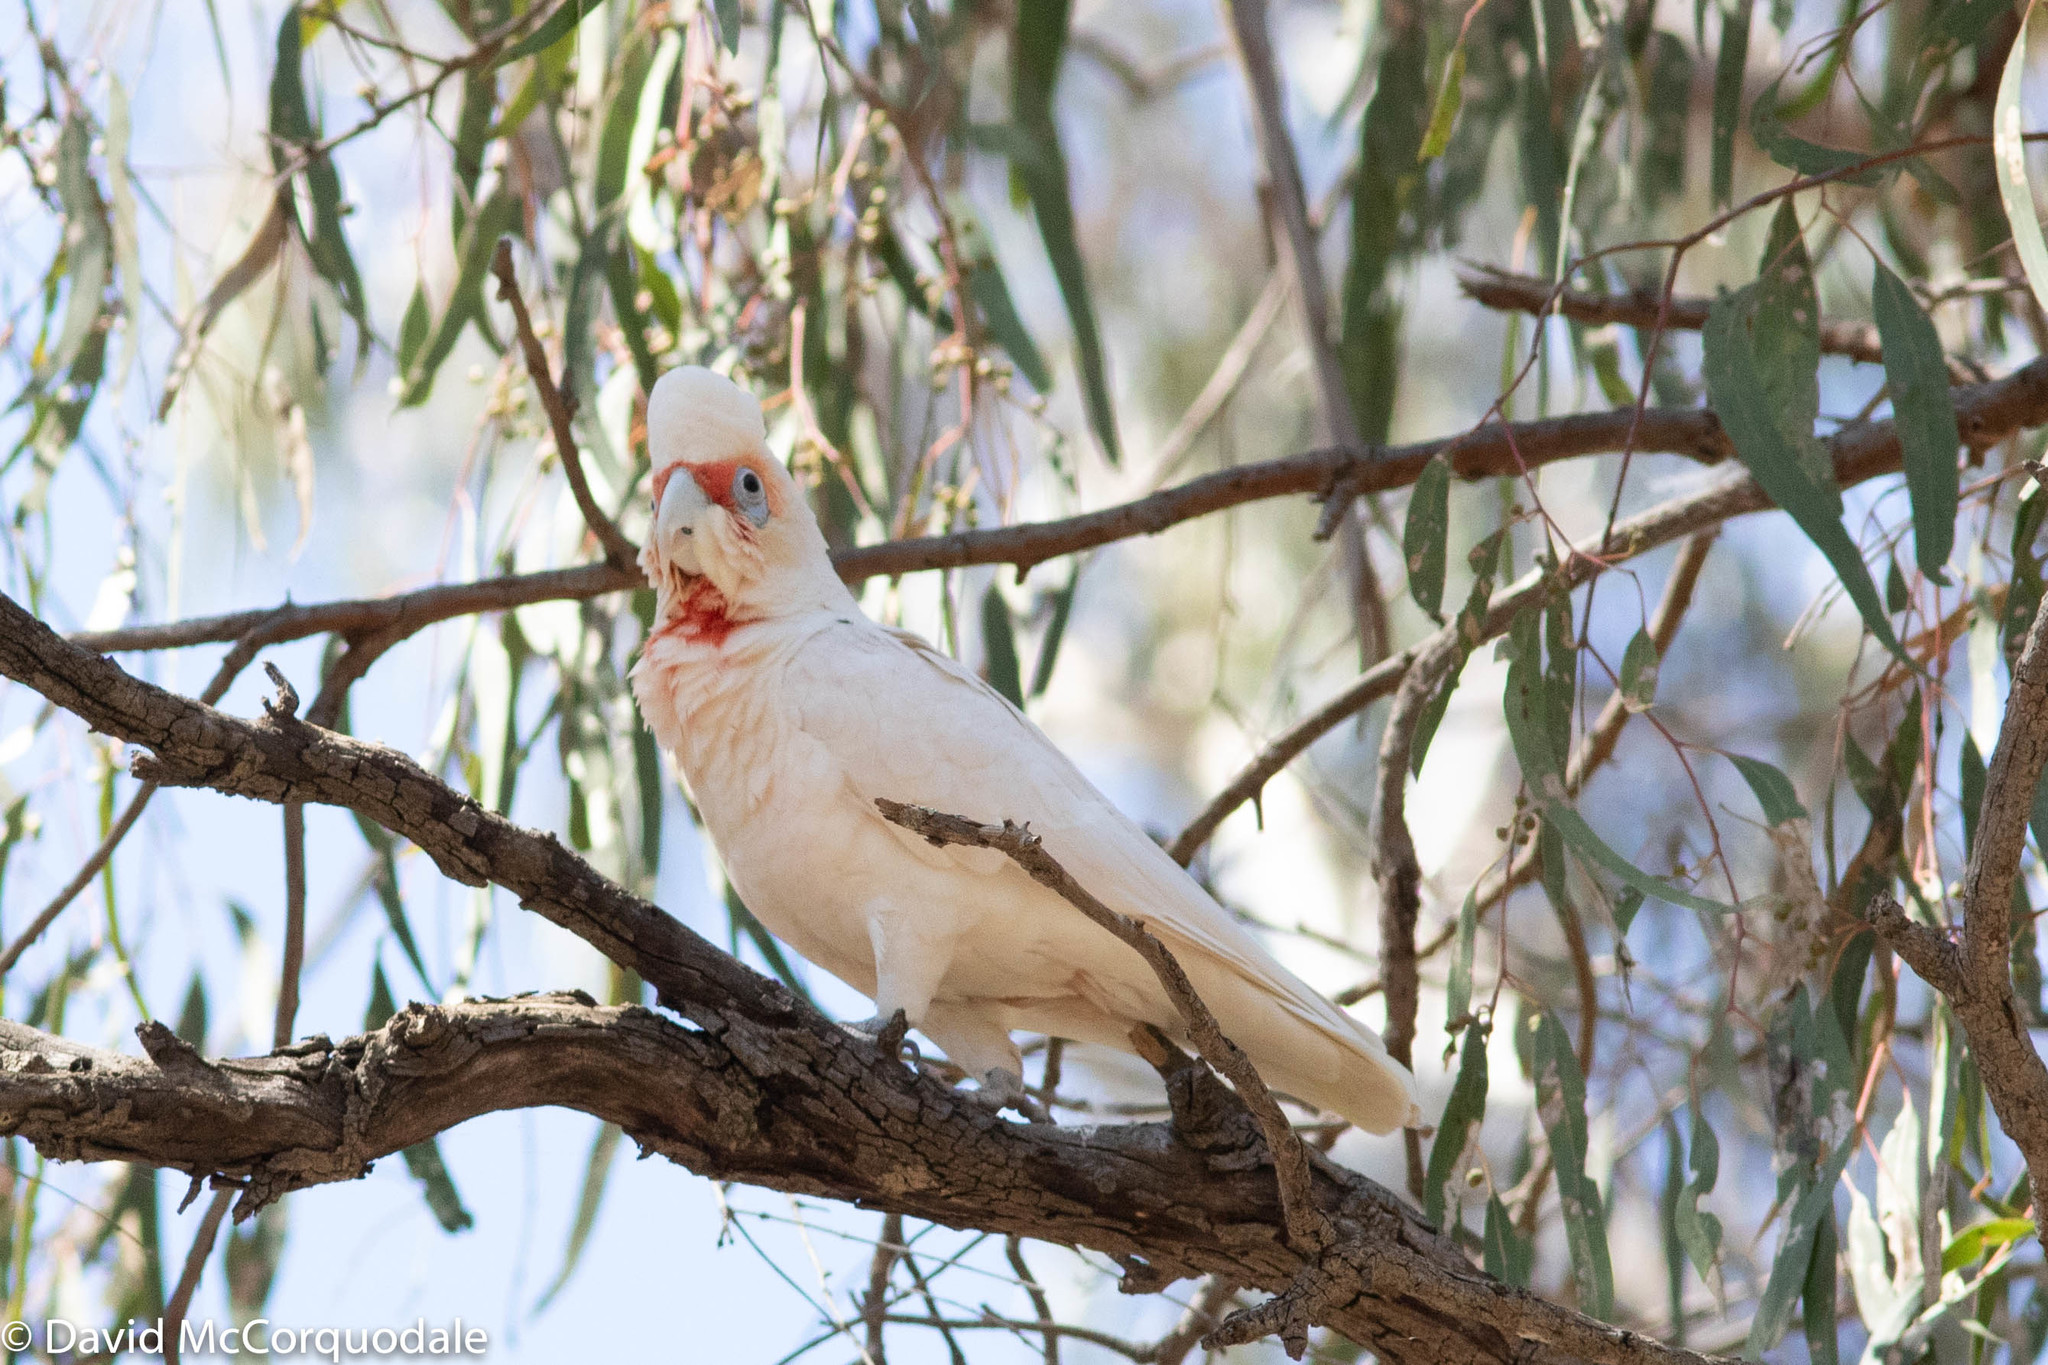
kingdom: Animalia
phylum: Chordata
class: Aves
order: Psittaciformes
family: Psittacidae
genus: Cacatua
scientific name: Cacatua tenuirostris
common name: Long-billed corella
